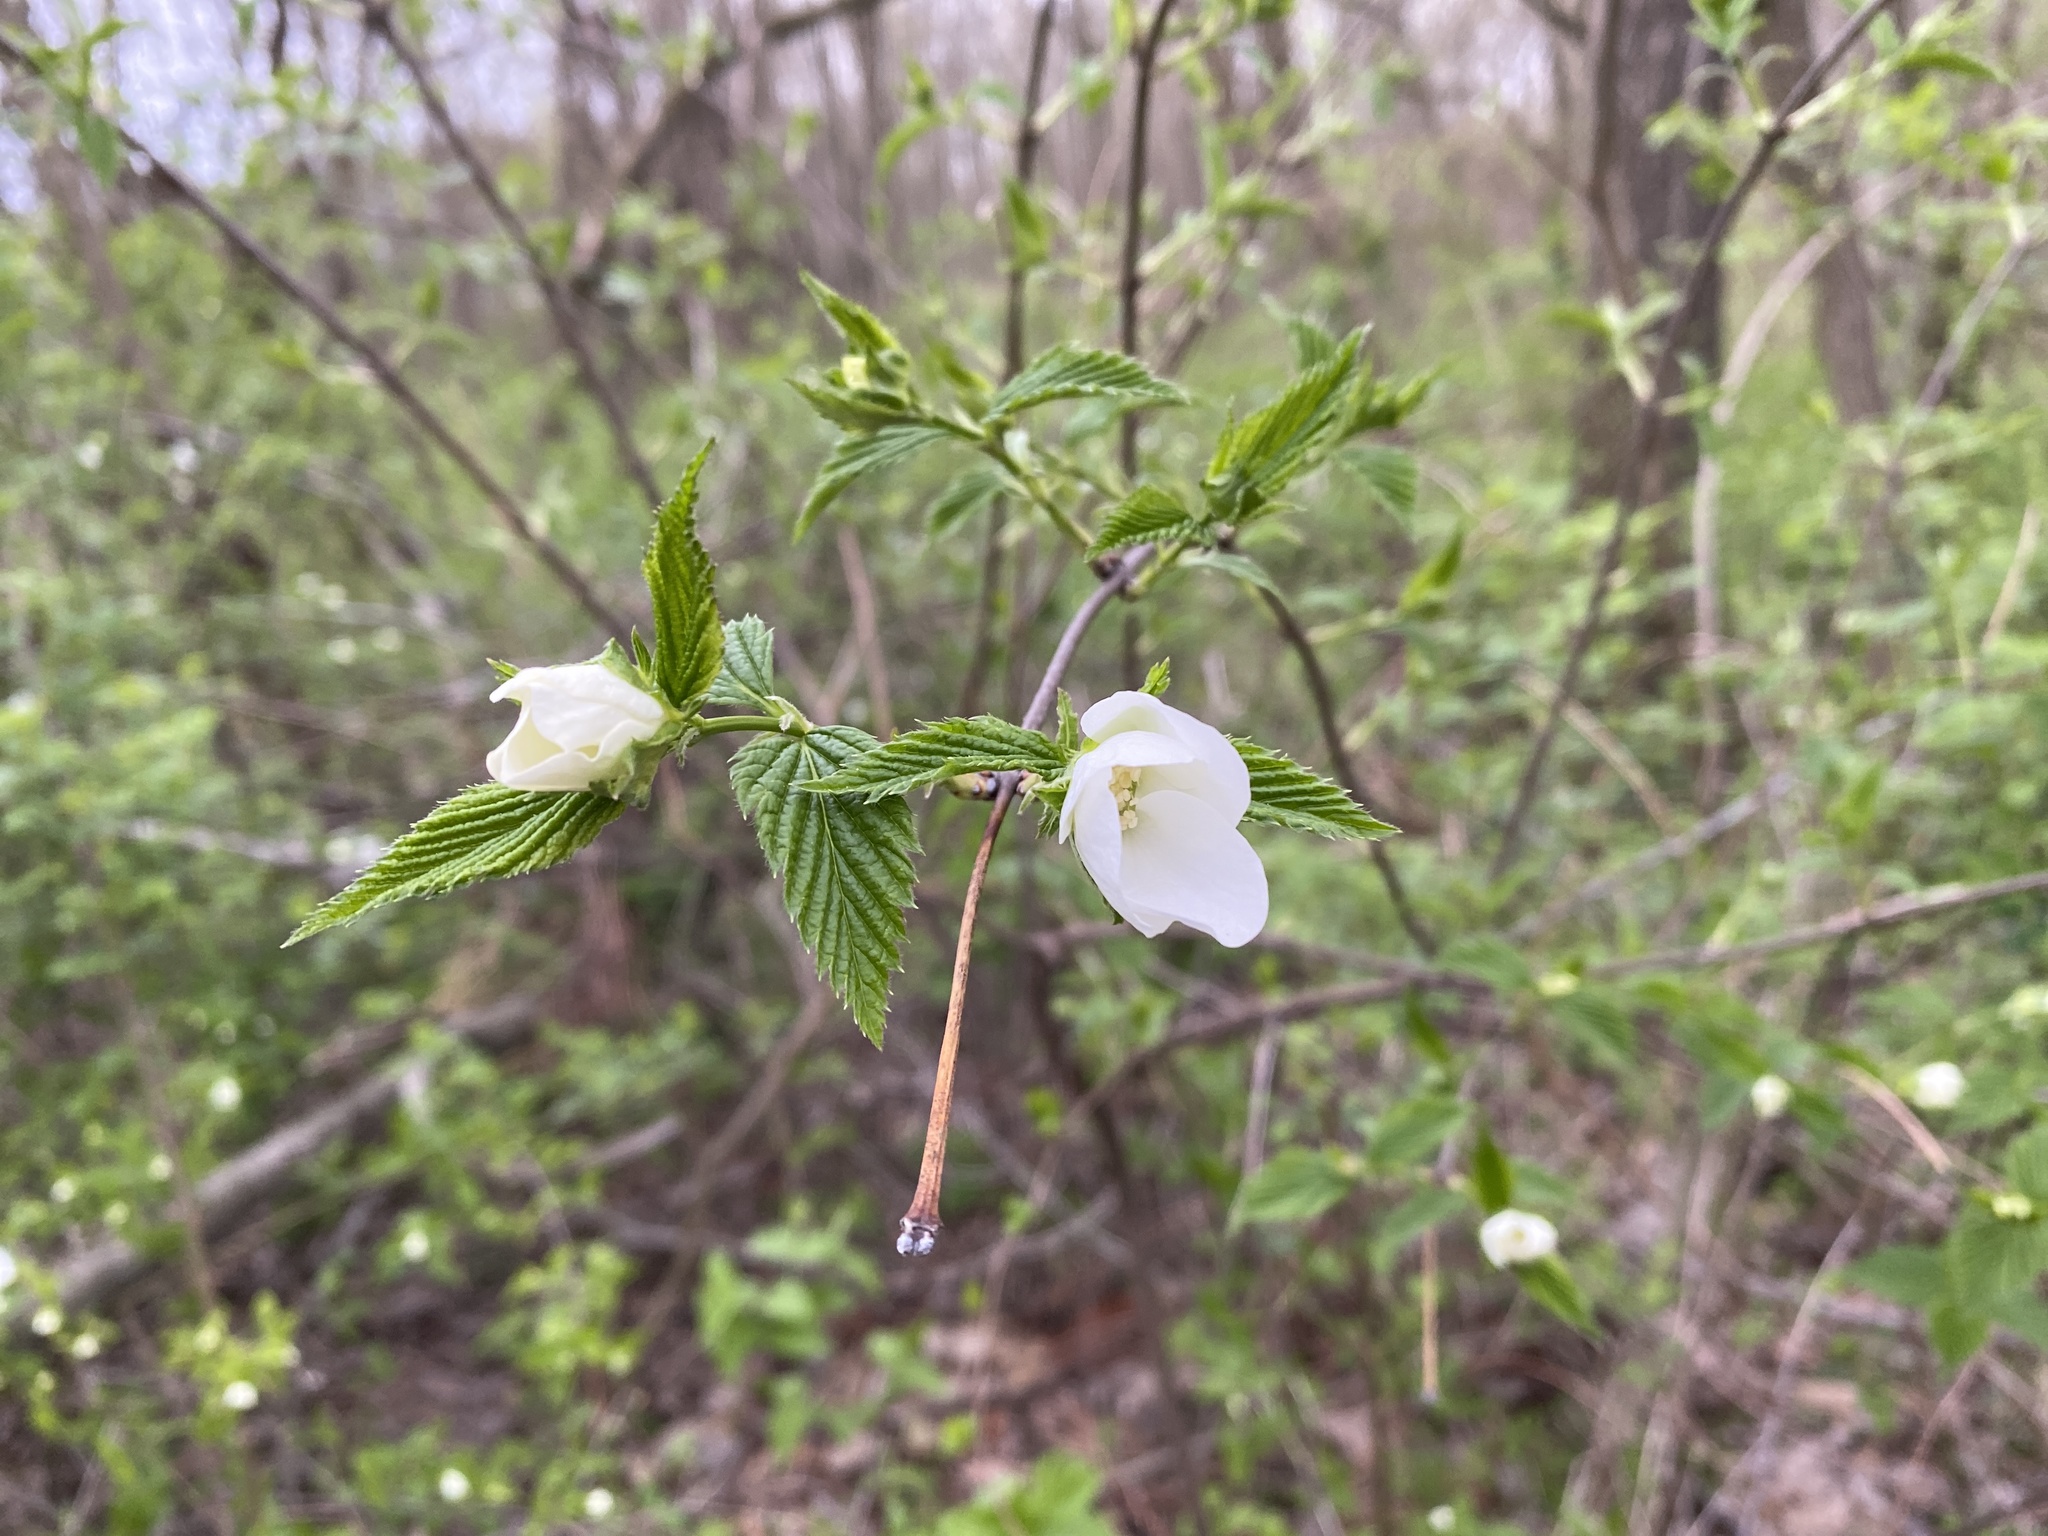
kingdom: Plantae
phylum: Tracheophyta
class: Magnoliopsida
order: Rosales
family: Rosaceae
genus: Rhodotypos
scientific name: Rhodotypos scandens
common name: Jetbead
